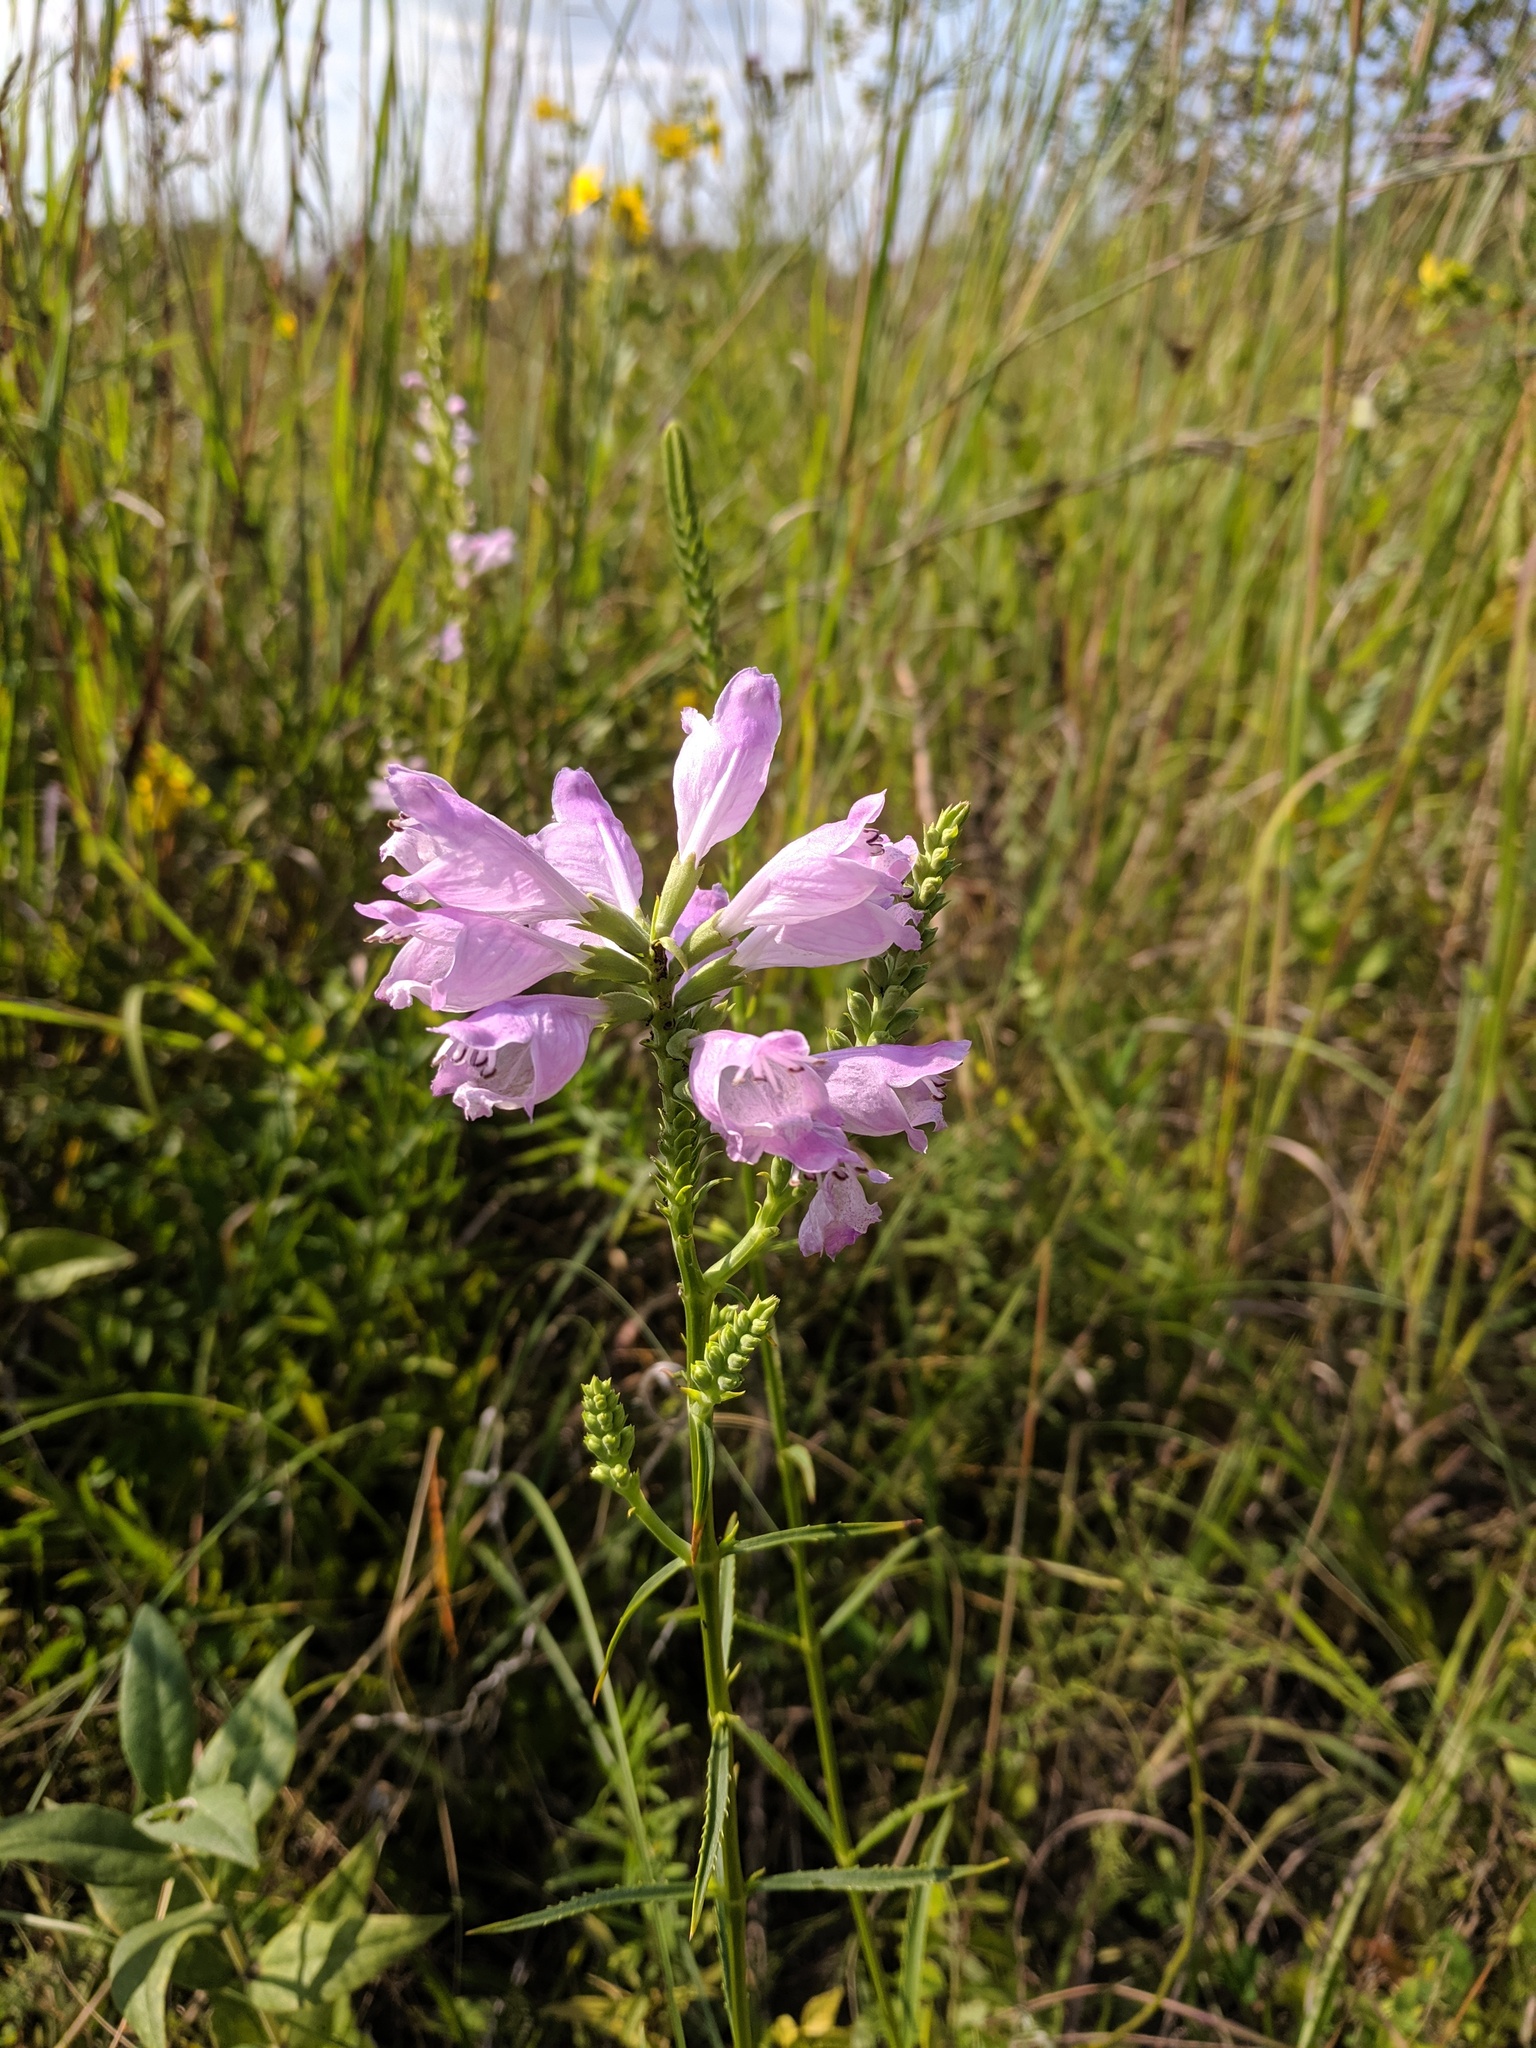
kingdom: Plantae
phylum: Tracheophyta
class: Magnoliopsida
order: Lamiales
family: Lamiaceae
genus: Physostegia
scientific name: Physostegia virginiana
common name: Obedient-plant
